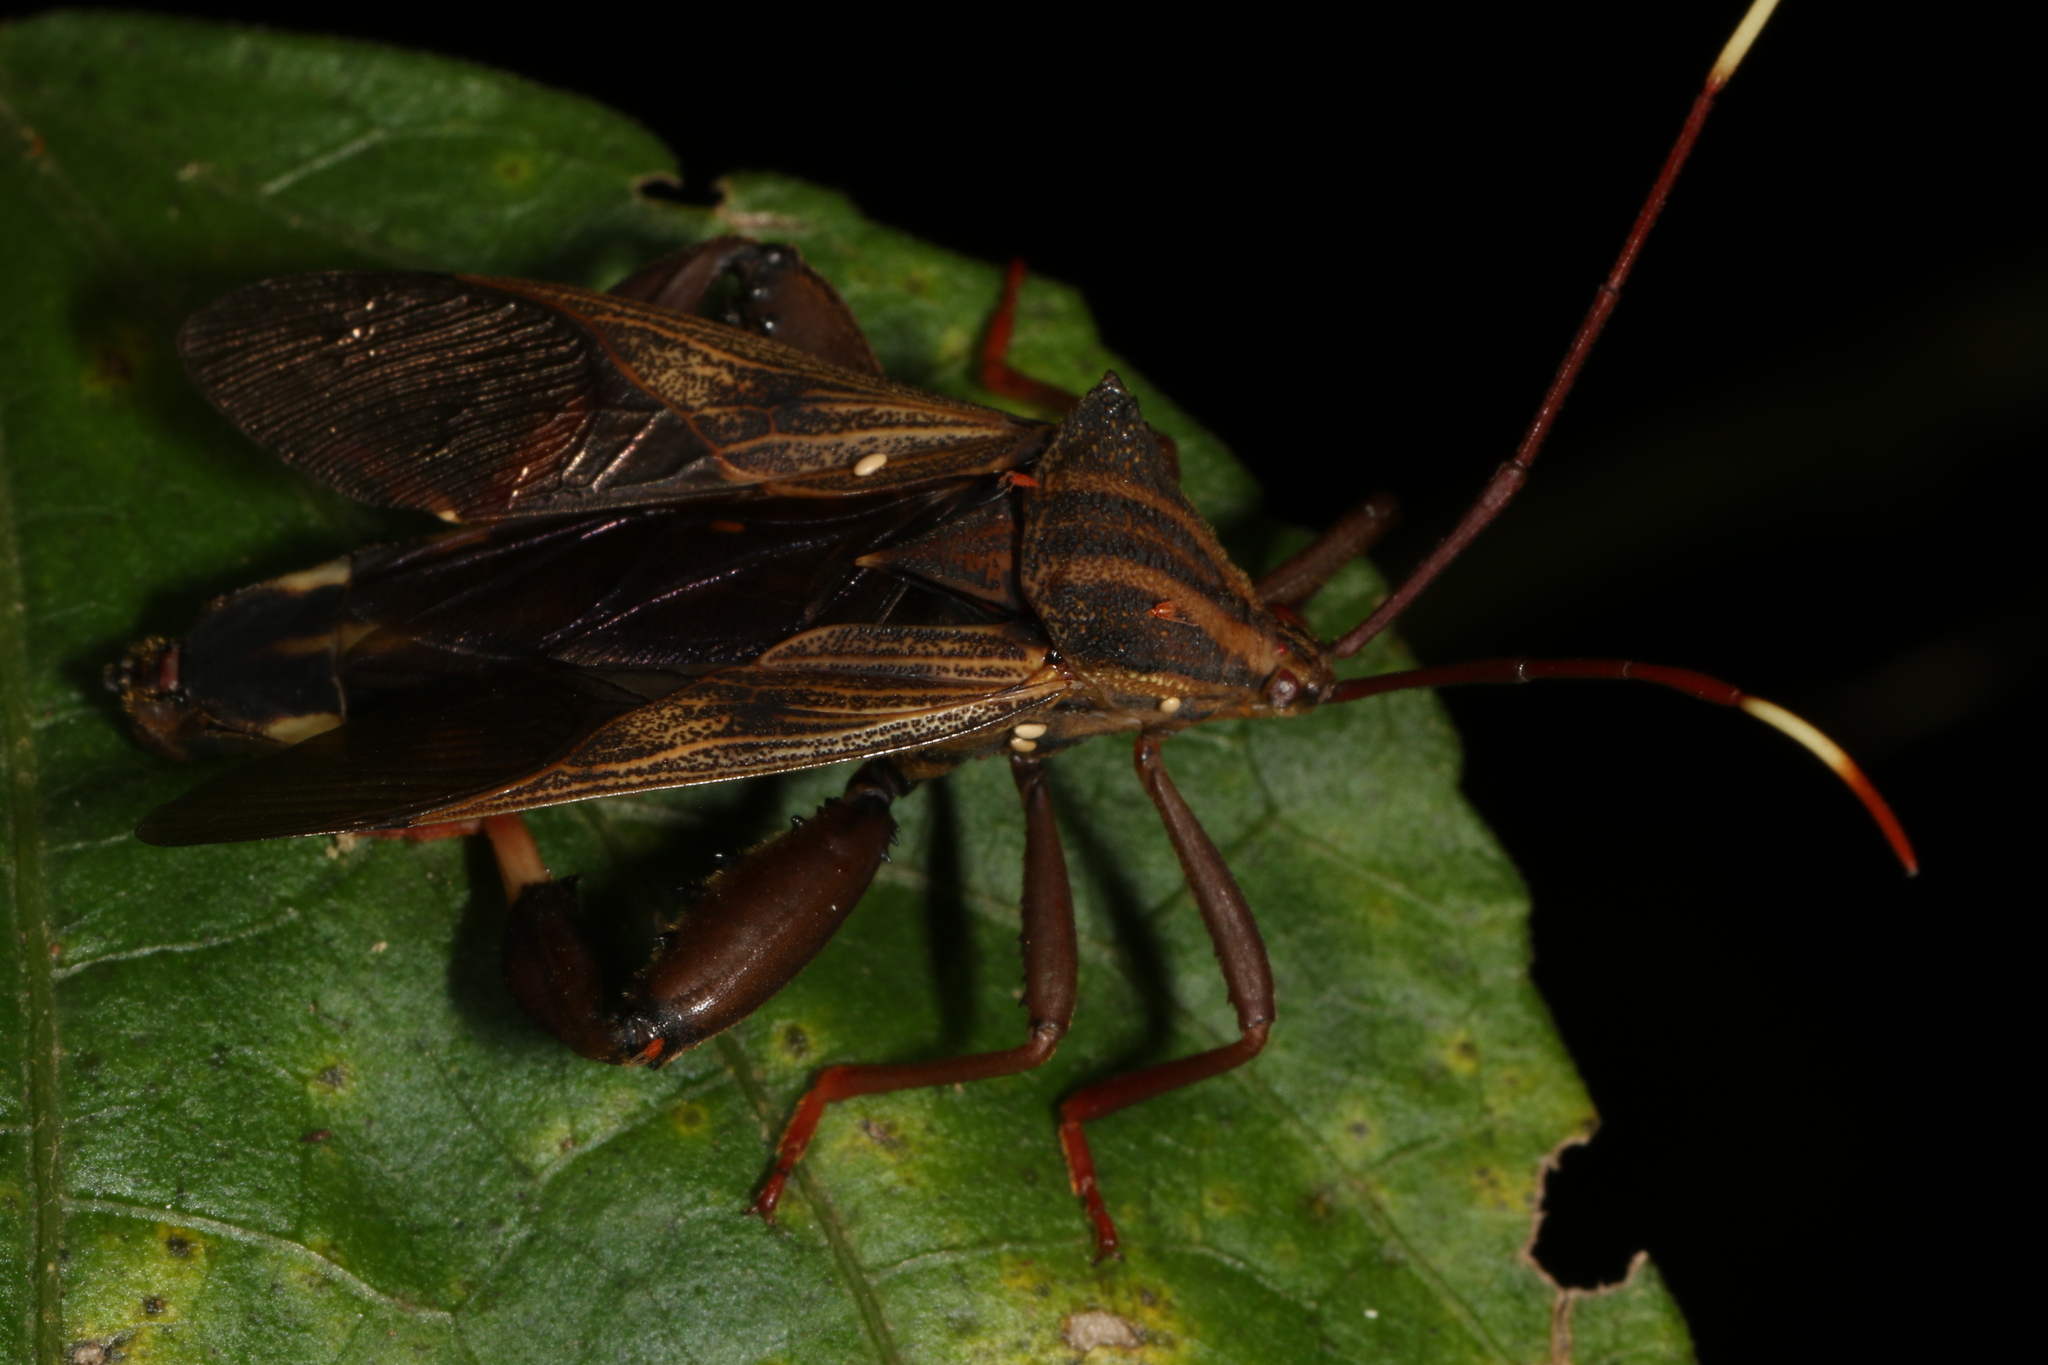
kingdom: Animalia
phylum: Arthropoda
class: Insecta
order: Hemiptera
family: Coreidae
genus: Melucha
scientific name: Melucha phyllocnemis
